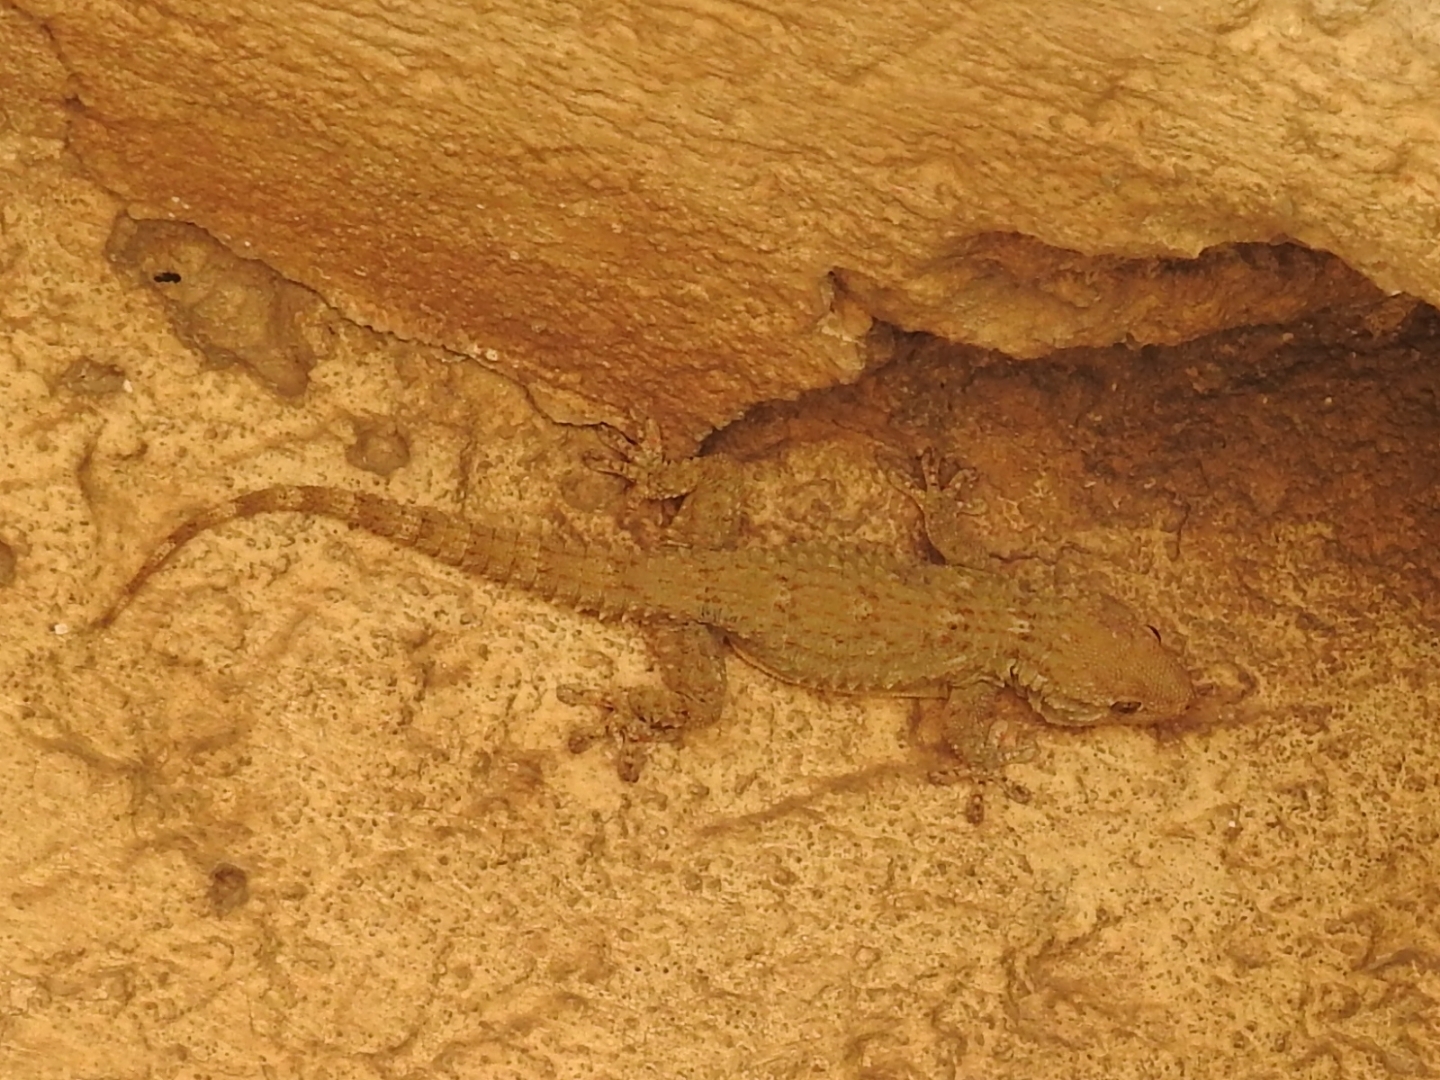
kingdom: Animalia
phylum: Chordata
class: Squamata
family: Phyllodactylidae
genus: Tarentola
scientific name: Tarentola mauritanica
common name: Moorish gecko
